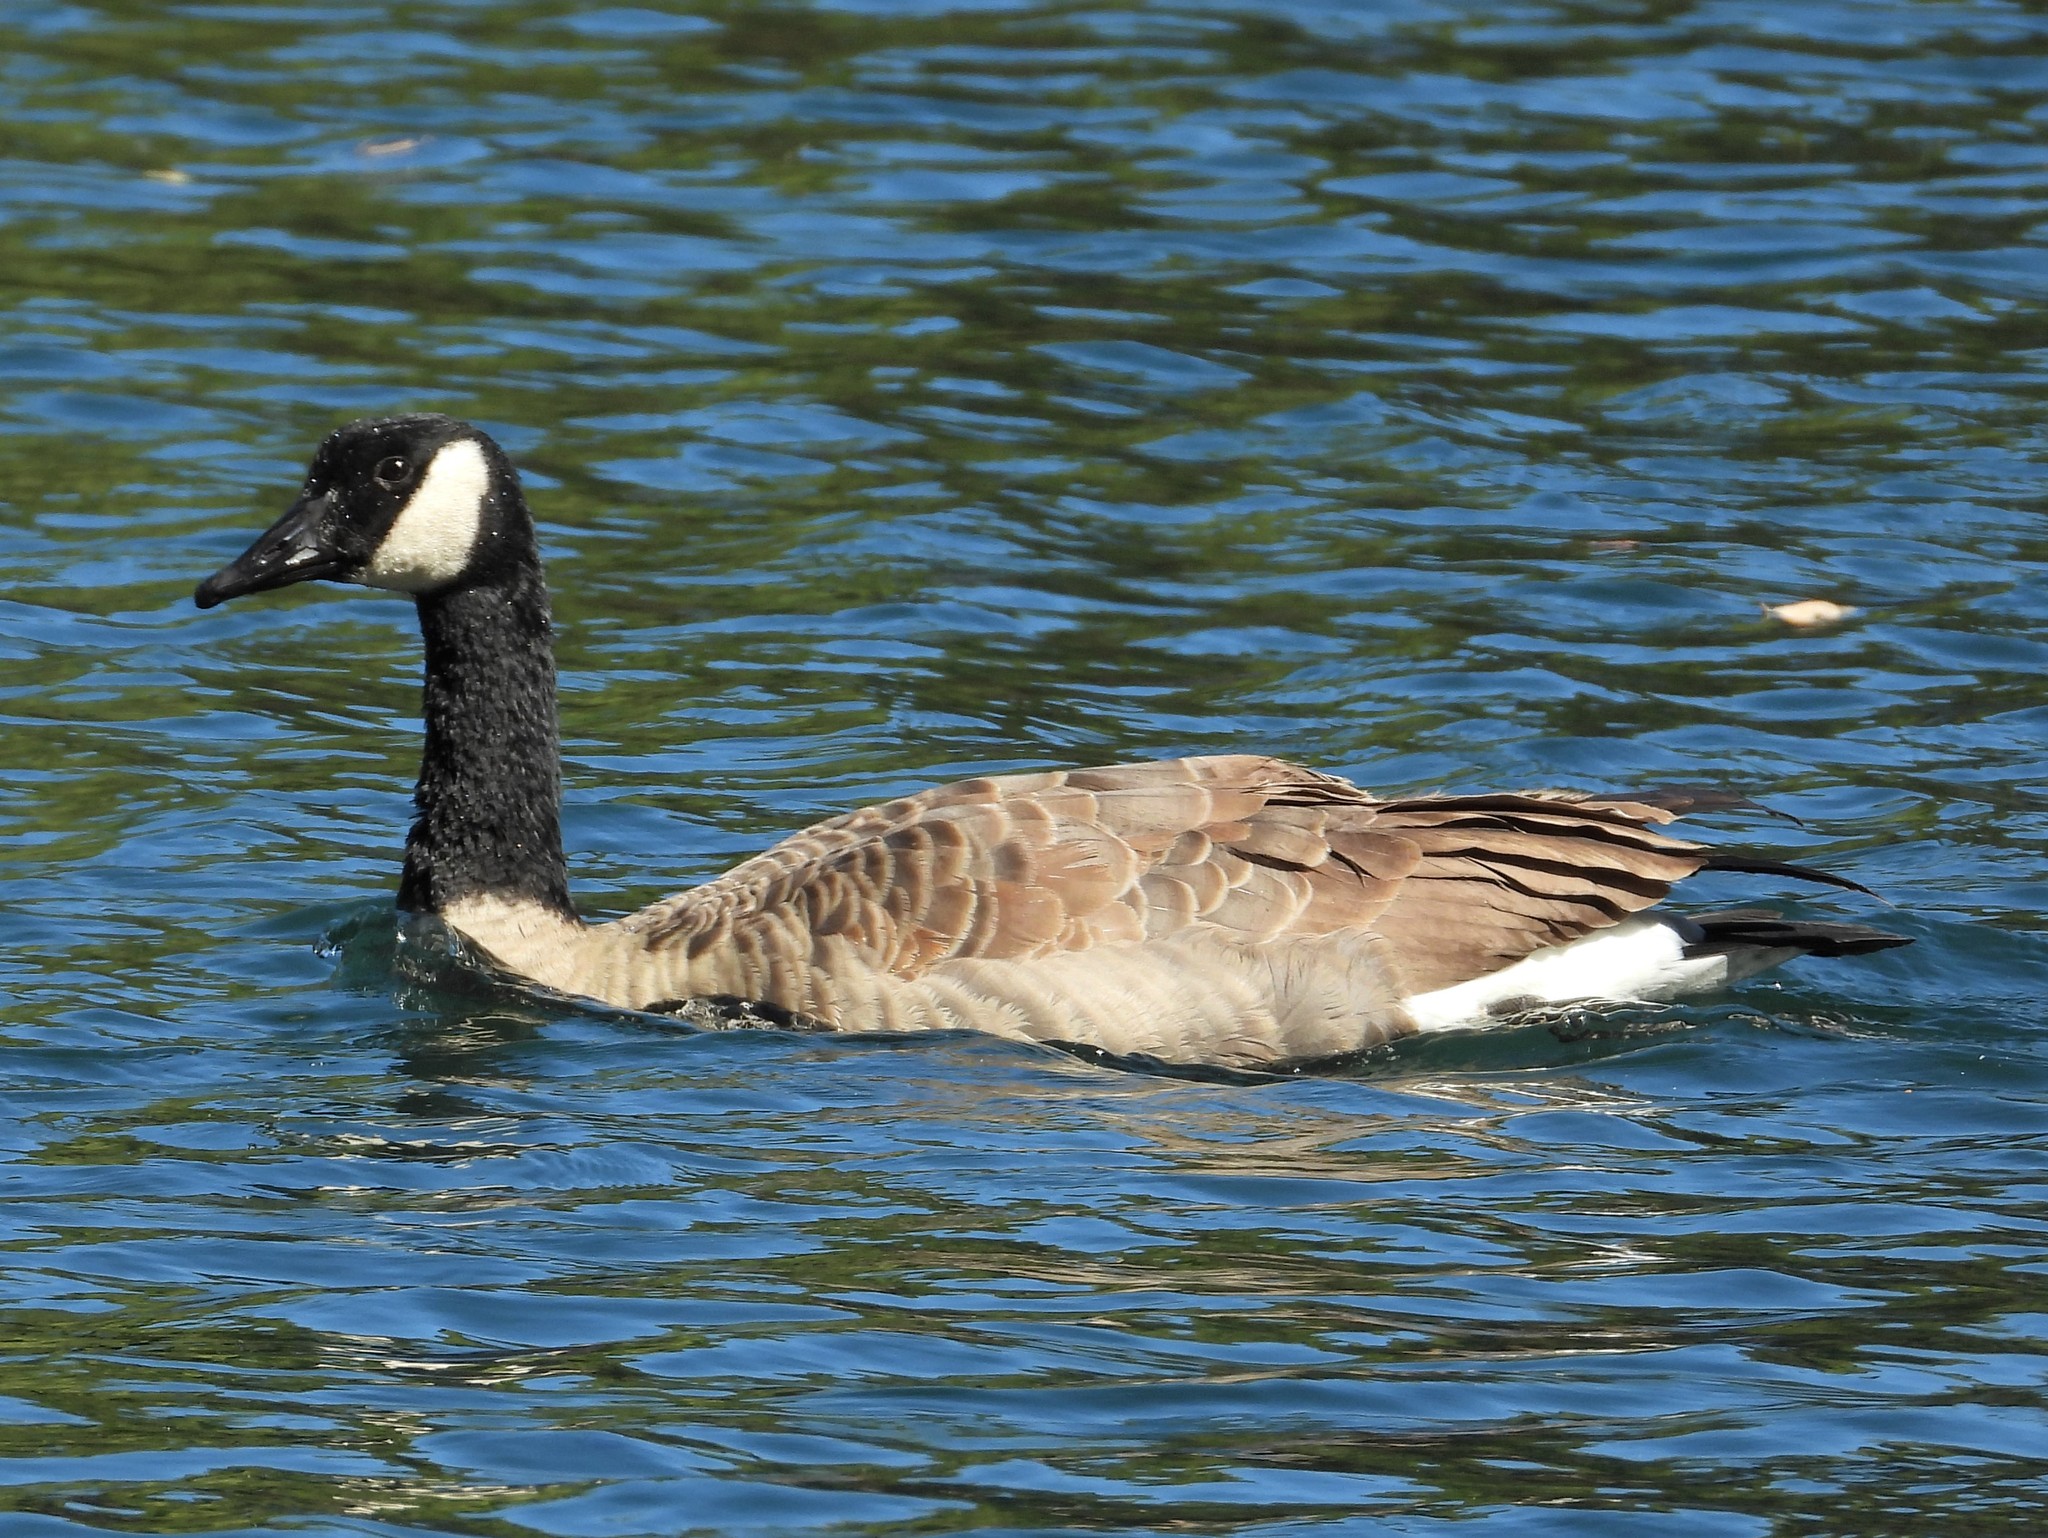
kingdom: Animalia
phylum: Chordata
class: Aves
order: Anseriformes
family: Anatidae
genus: Branta
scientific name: Branta canadensis
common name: Canada goose
